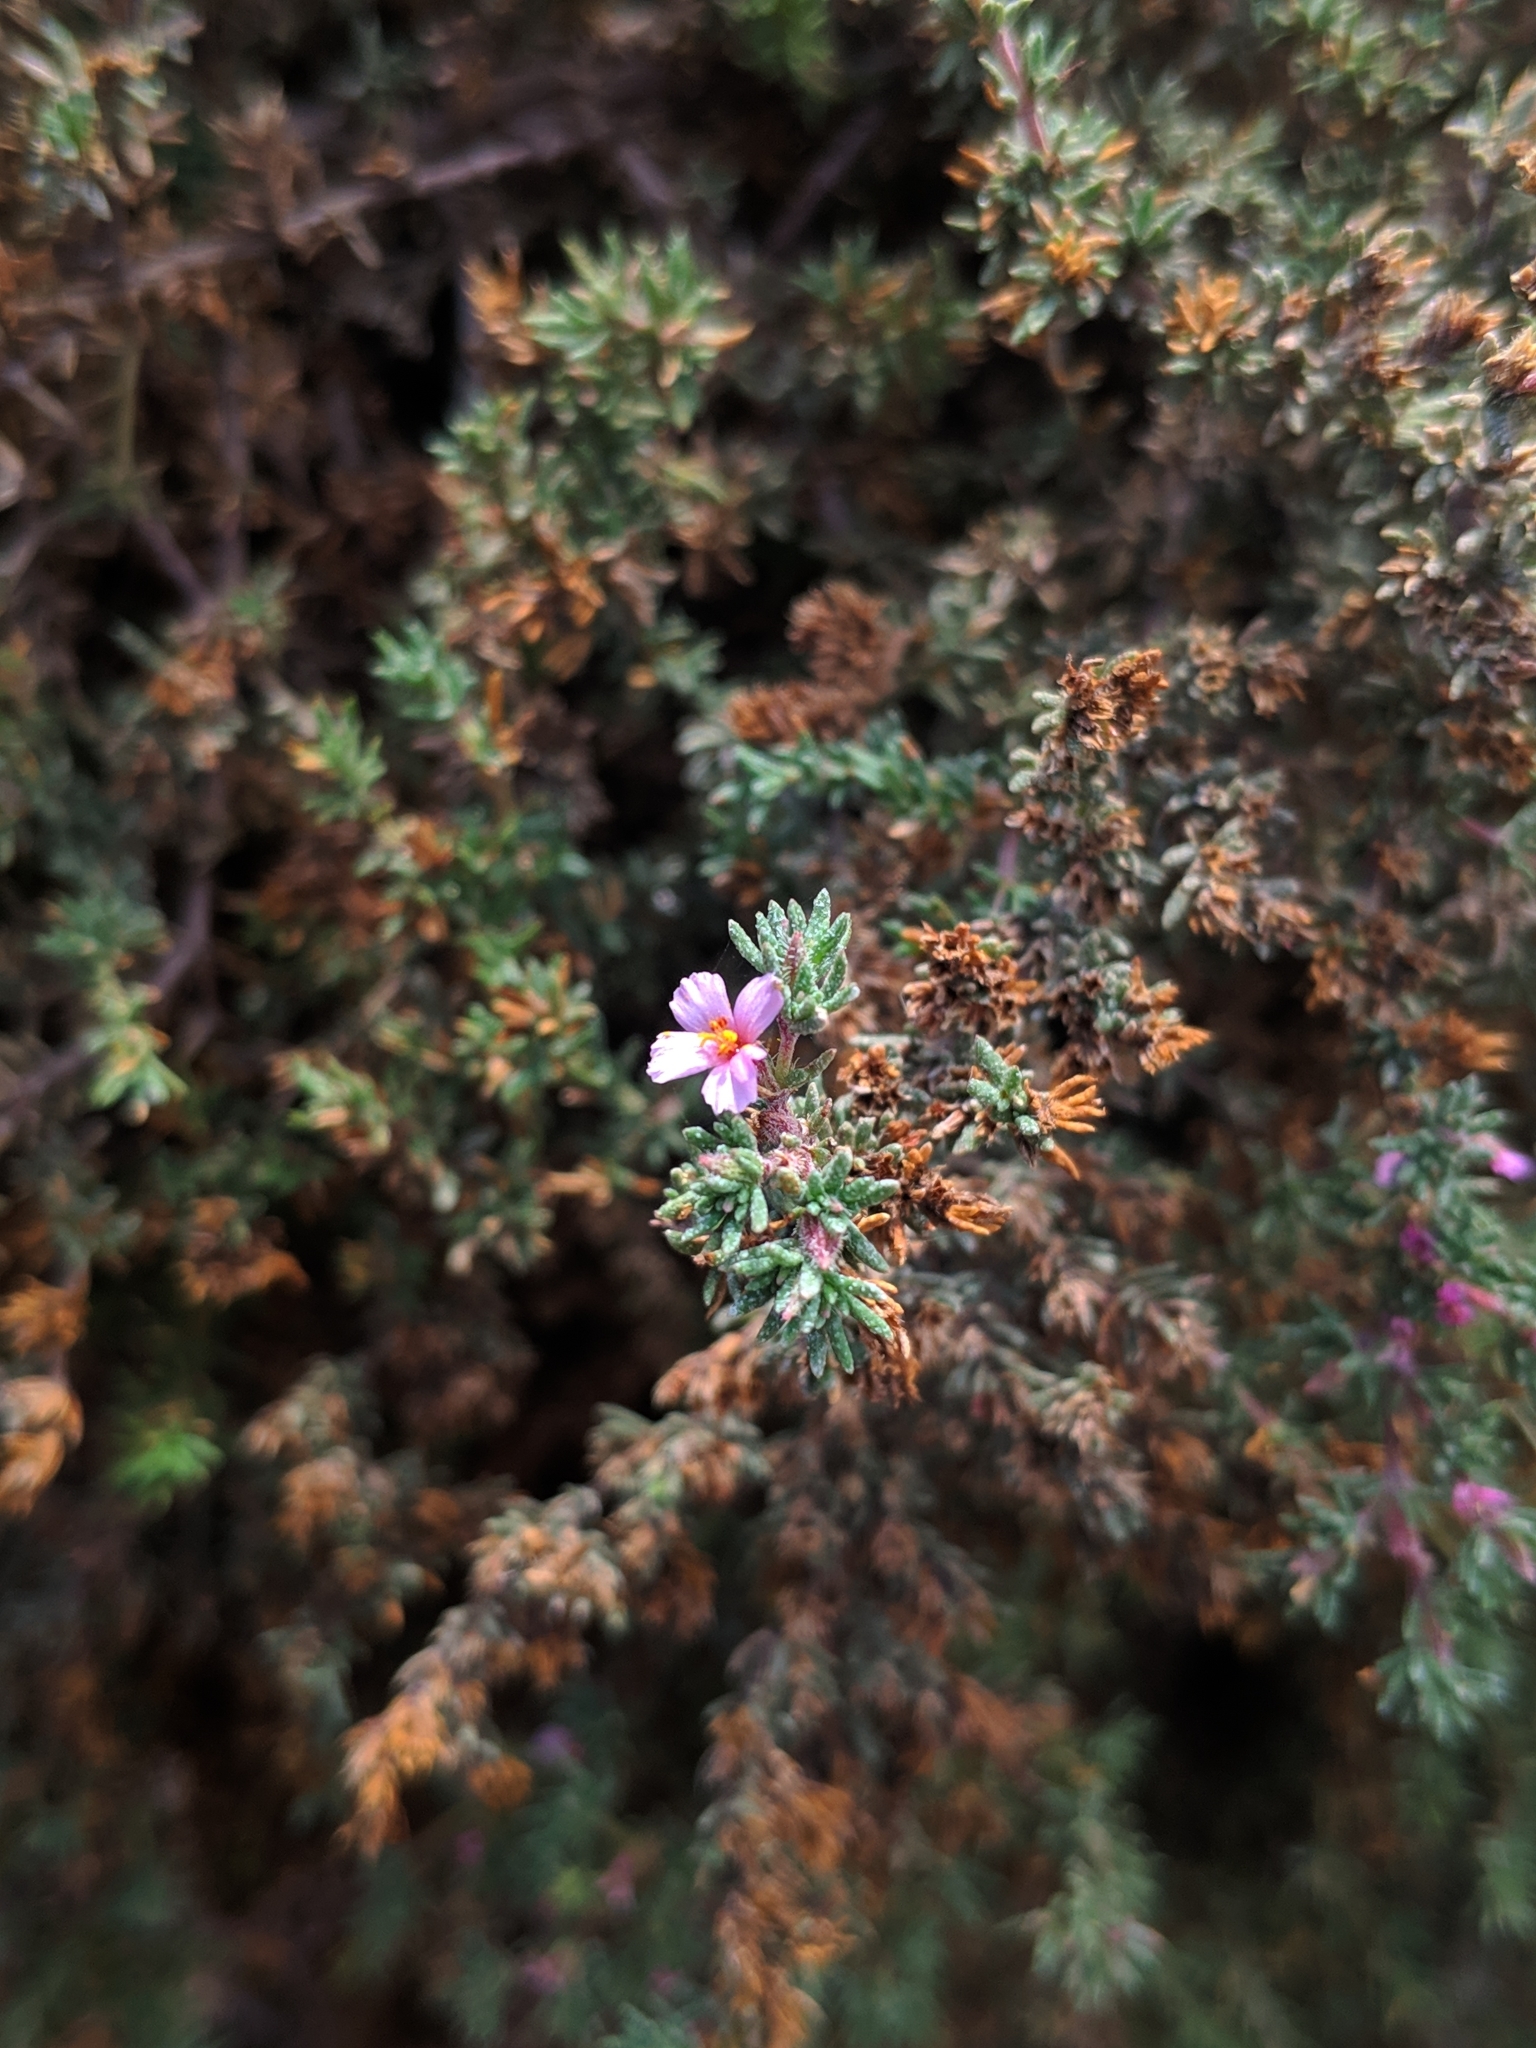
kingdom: Plantae
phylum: Tracheophyta
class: Magnoliopsida
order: Caryophyllales
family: Frankeniaceae
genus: Frankenia
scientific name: Frankenia capitata
